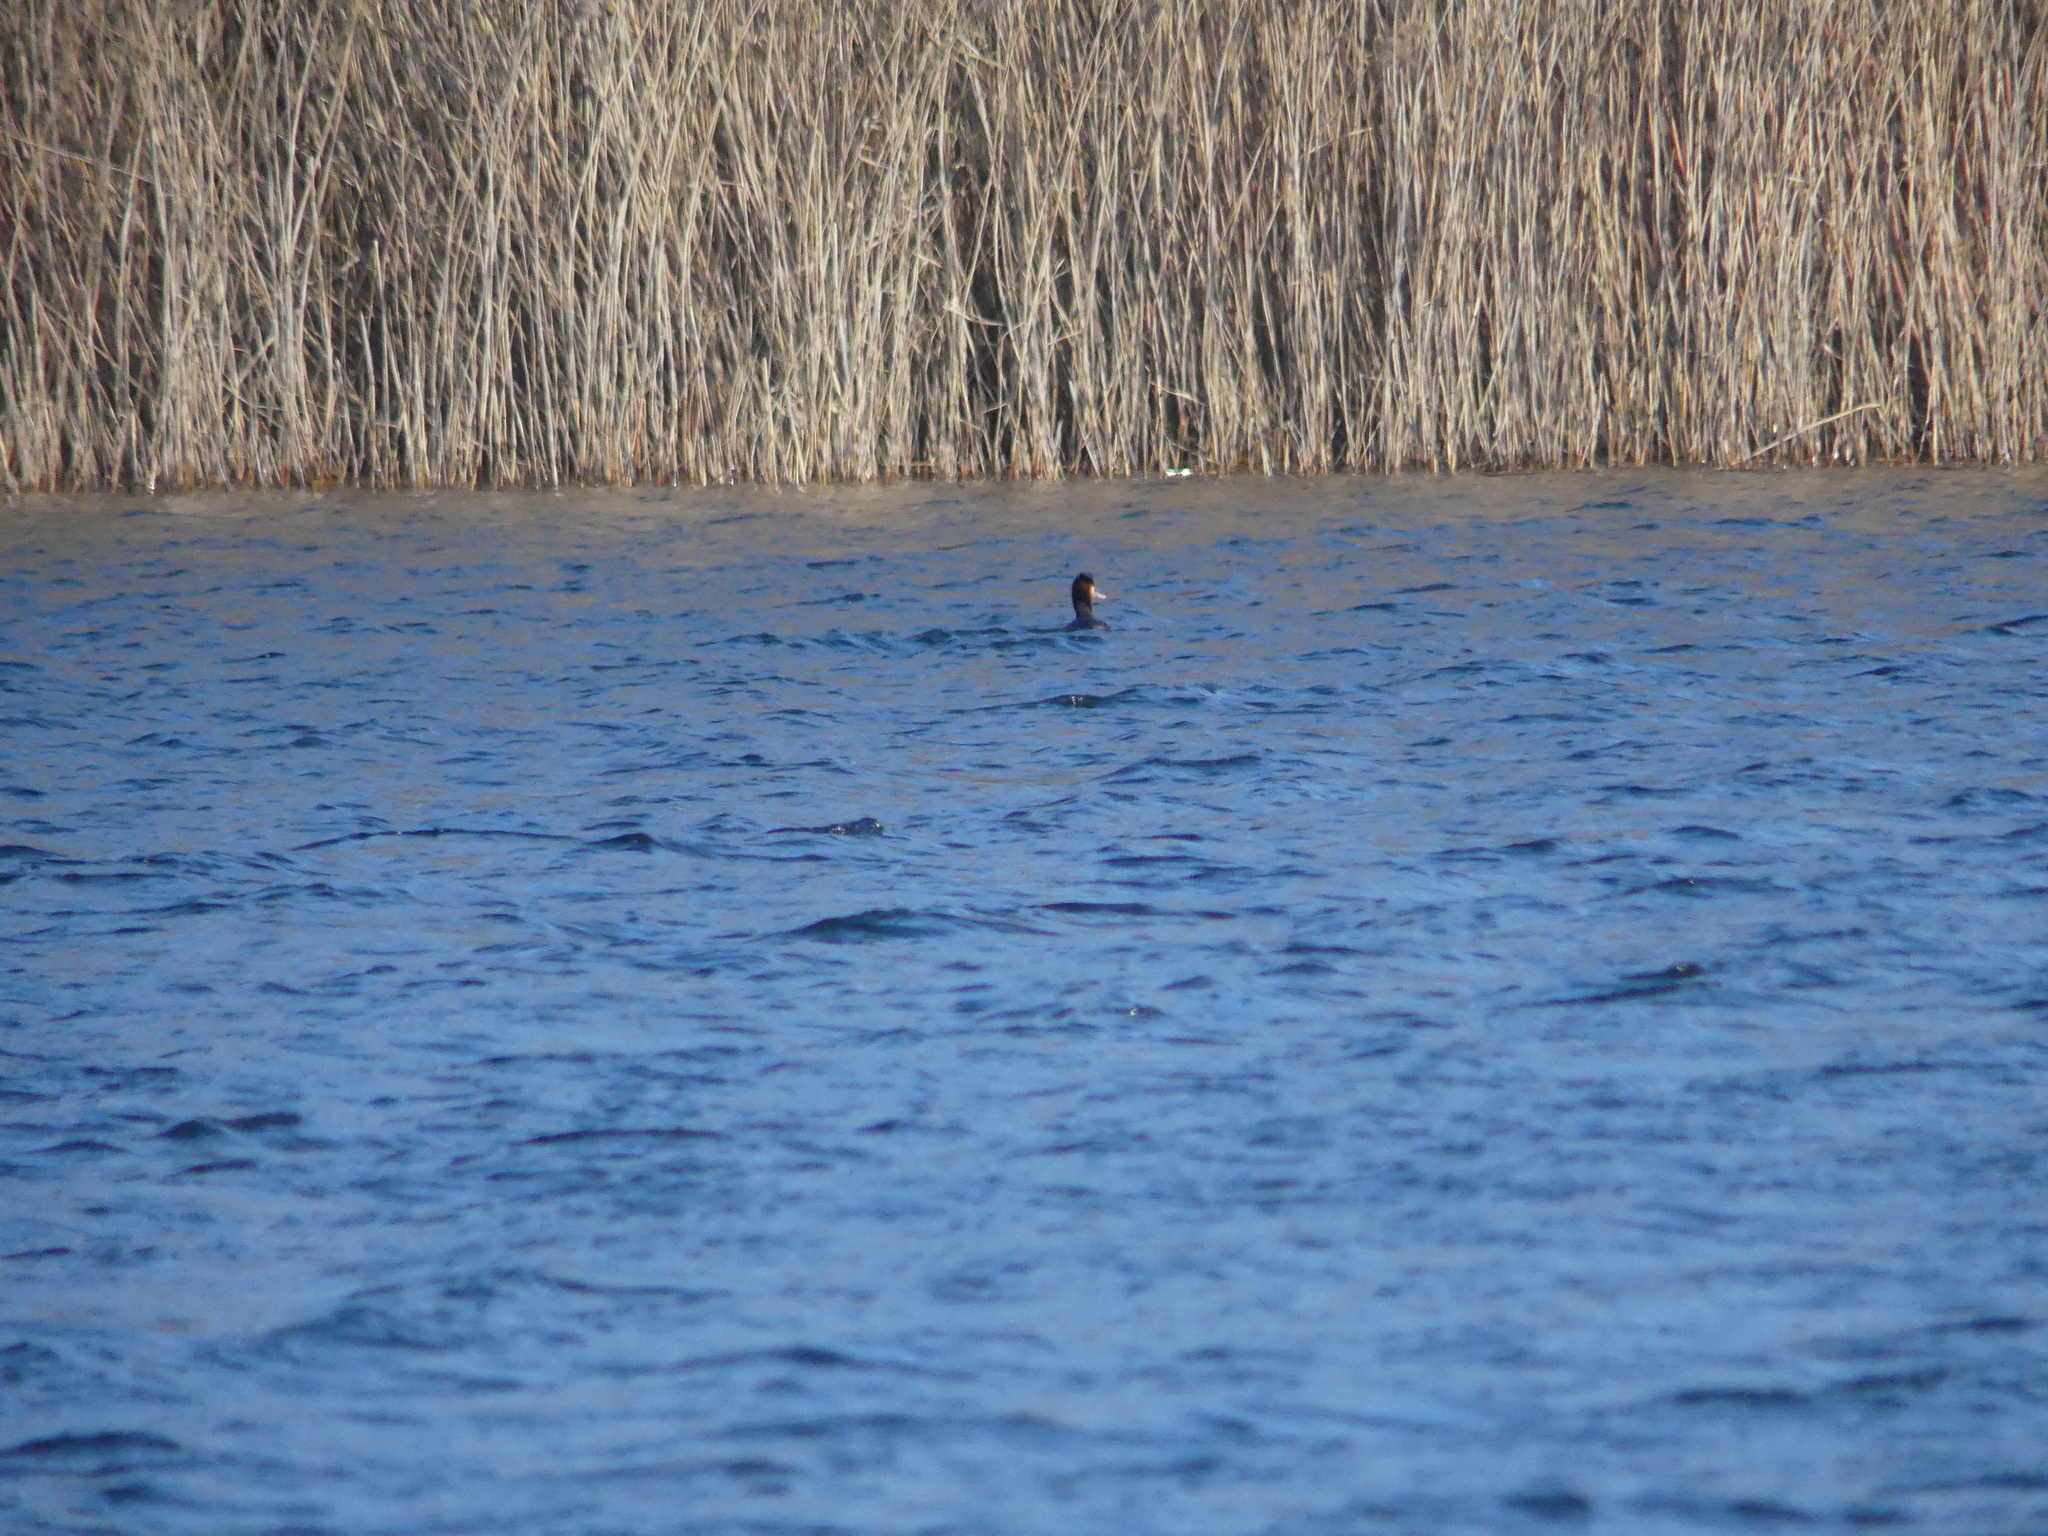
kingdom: Animalia
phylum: Chordata
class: Aves
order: Podicipediformes
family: Podicipedidae
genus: Podiceps
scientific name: Podiceps cristatus
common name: Great crested grebe
